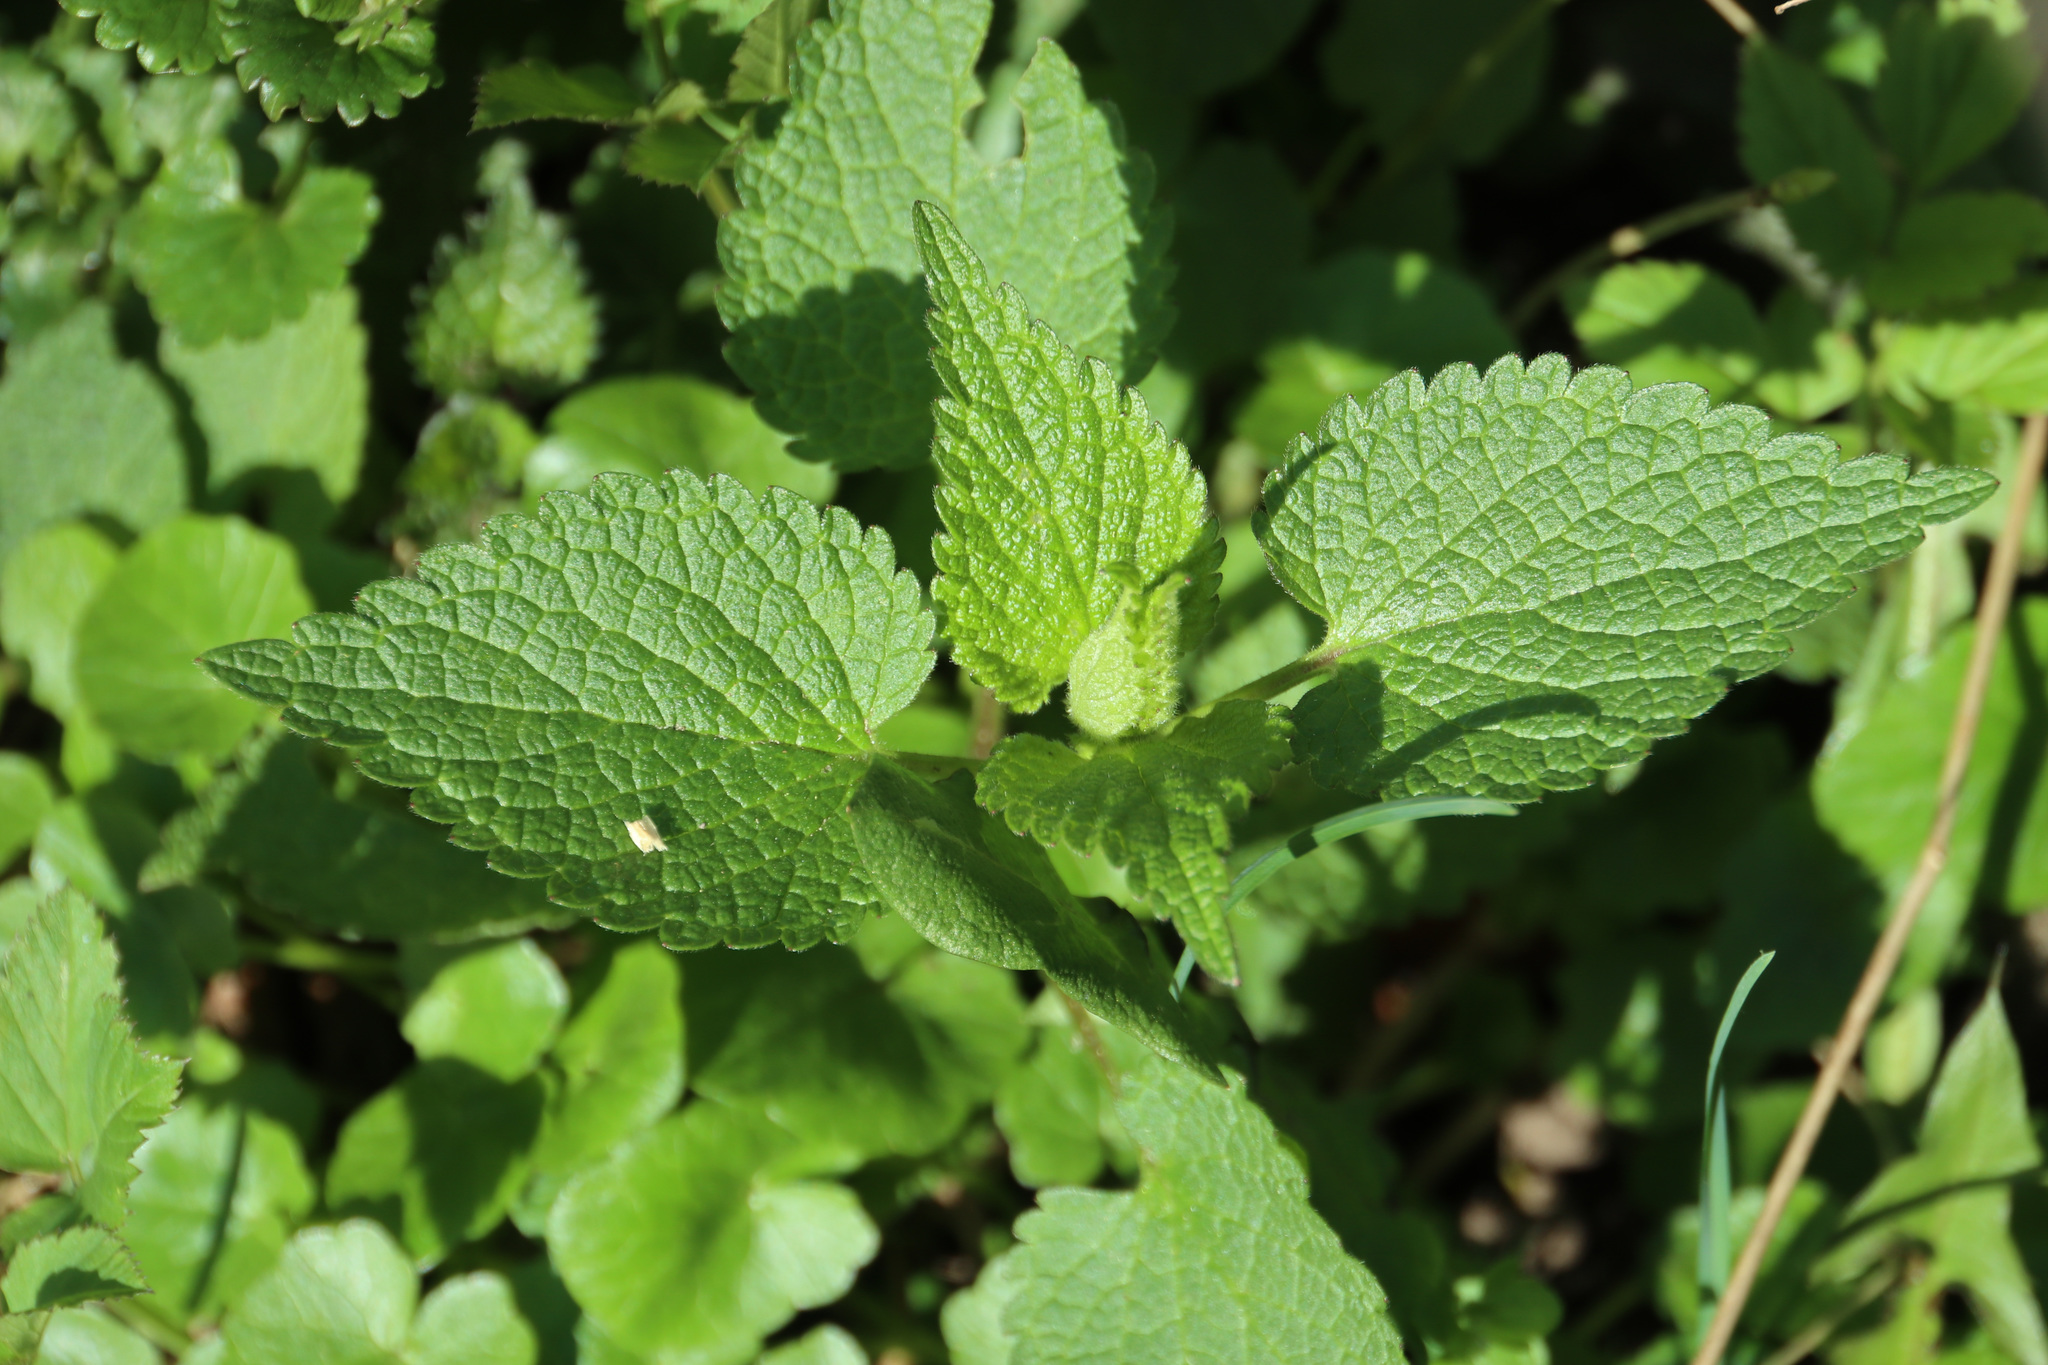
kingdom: Plantae
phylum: Tracheophyta
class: Magnoliopsida
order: Lamiales
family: Lamiaceae
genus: Lamium
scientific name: Lamium album
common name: White dead-nettle
